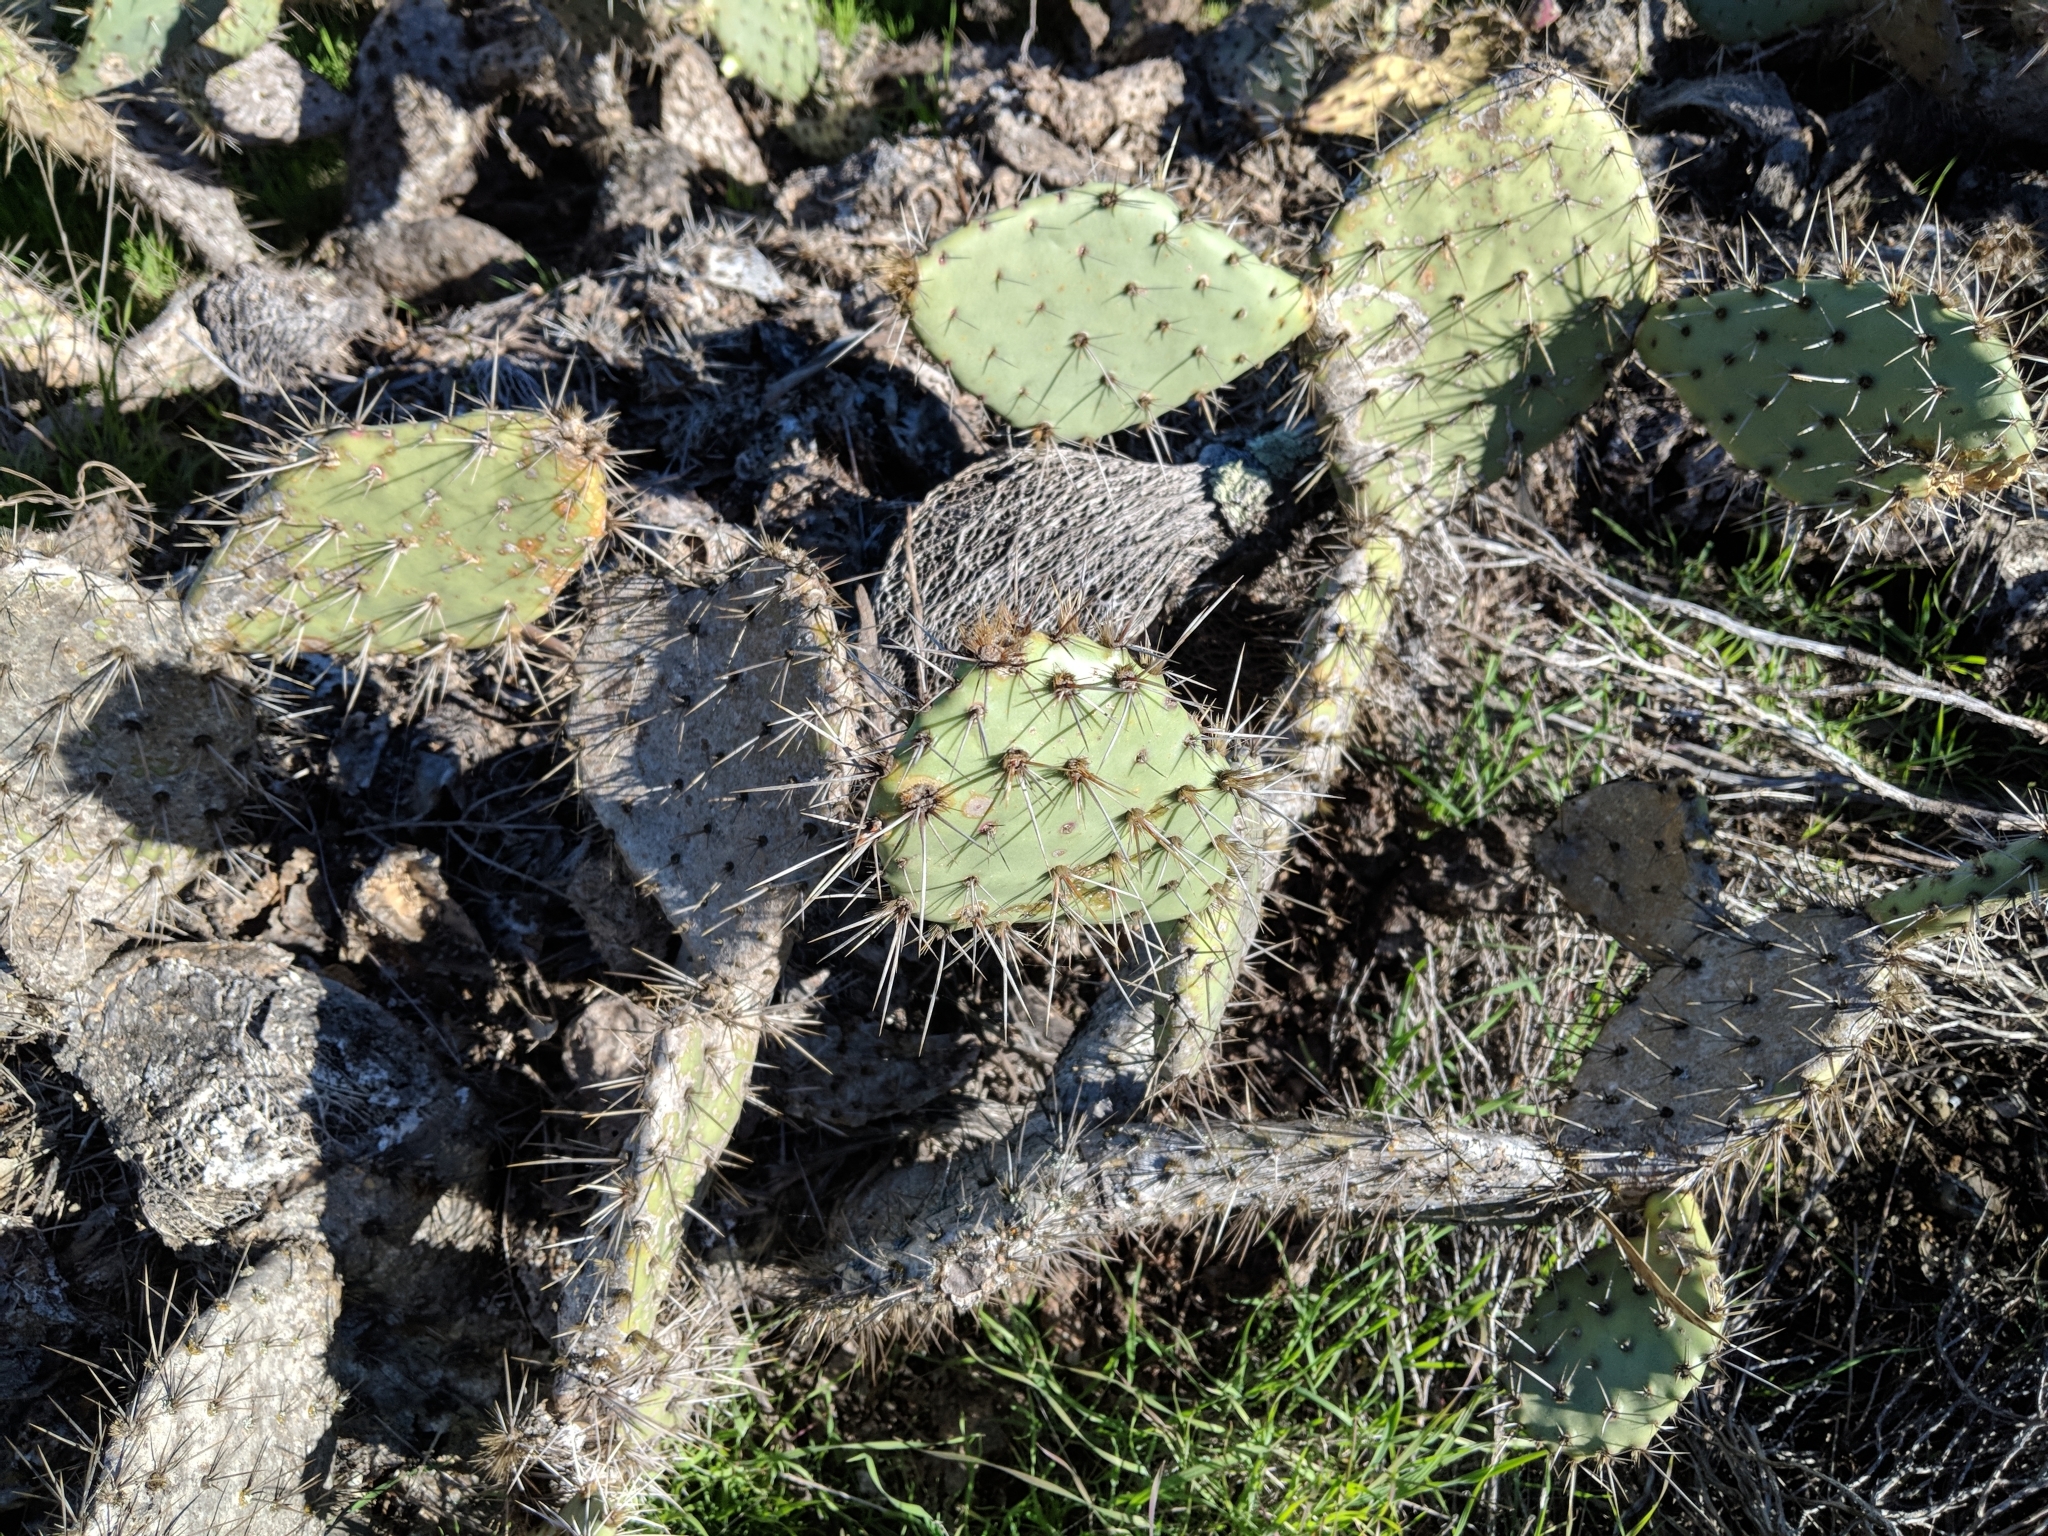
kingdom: Plantae
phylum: Tracheophyta
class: Magnoliopsida
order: Caryophyllales
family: Cactaceae
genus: Opuntia
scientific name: Opuntia littoralis
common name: Coastal prickly-pear
